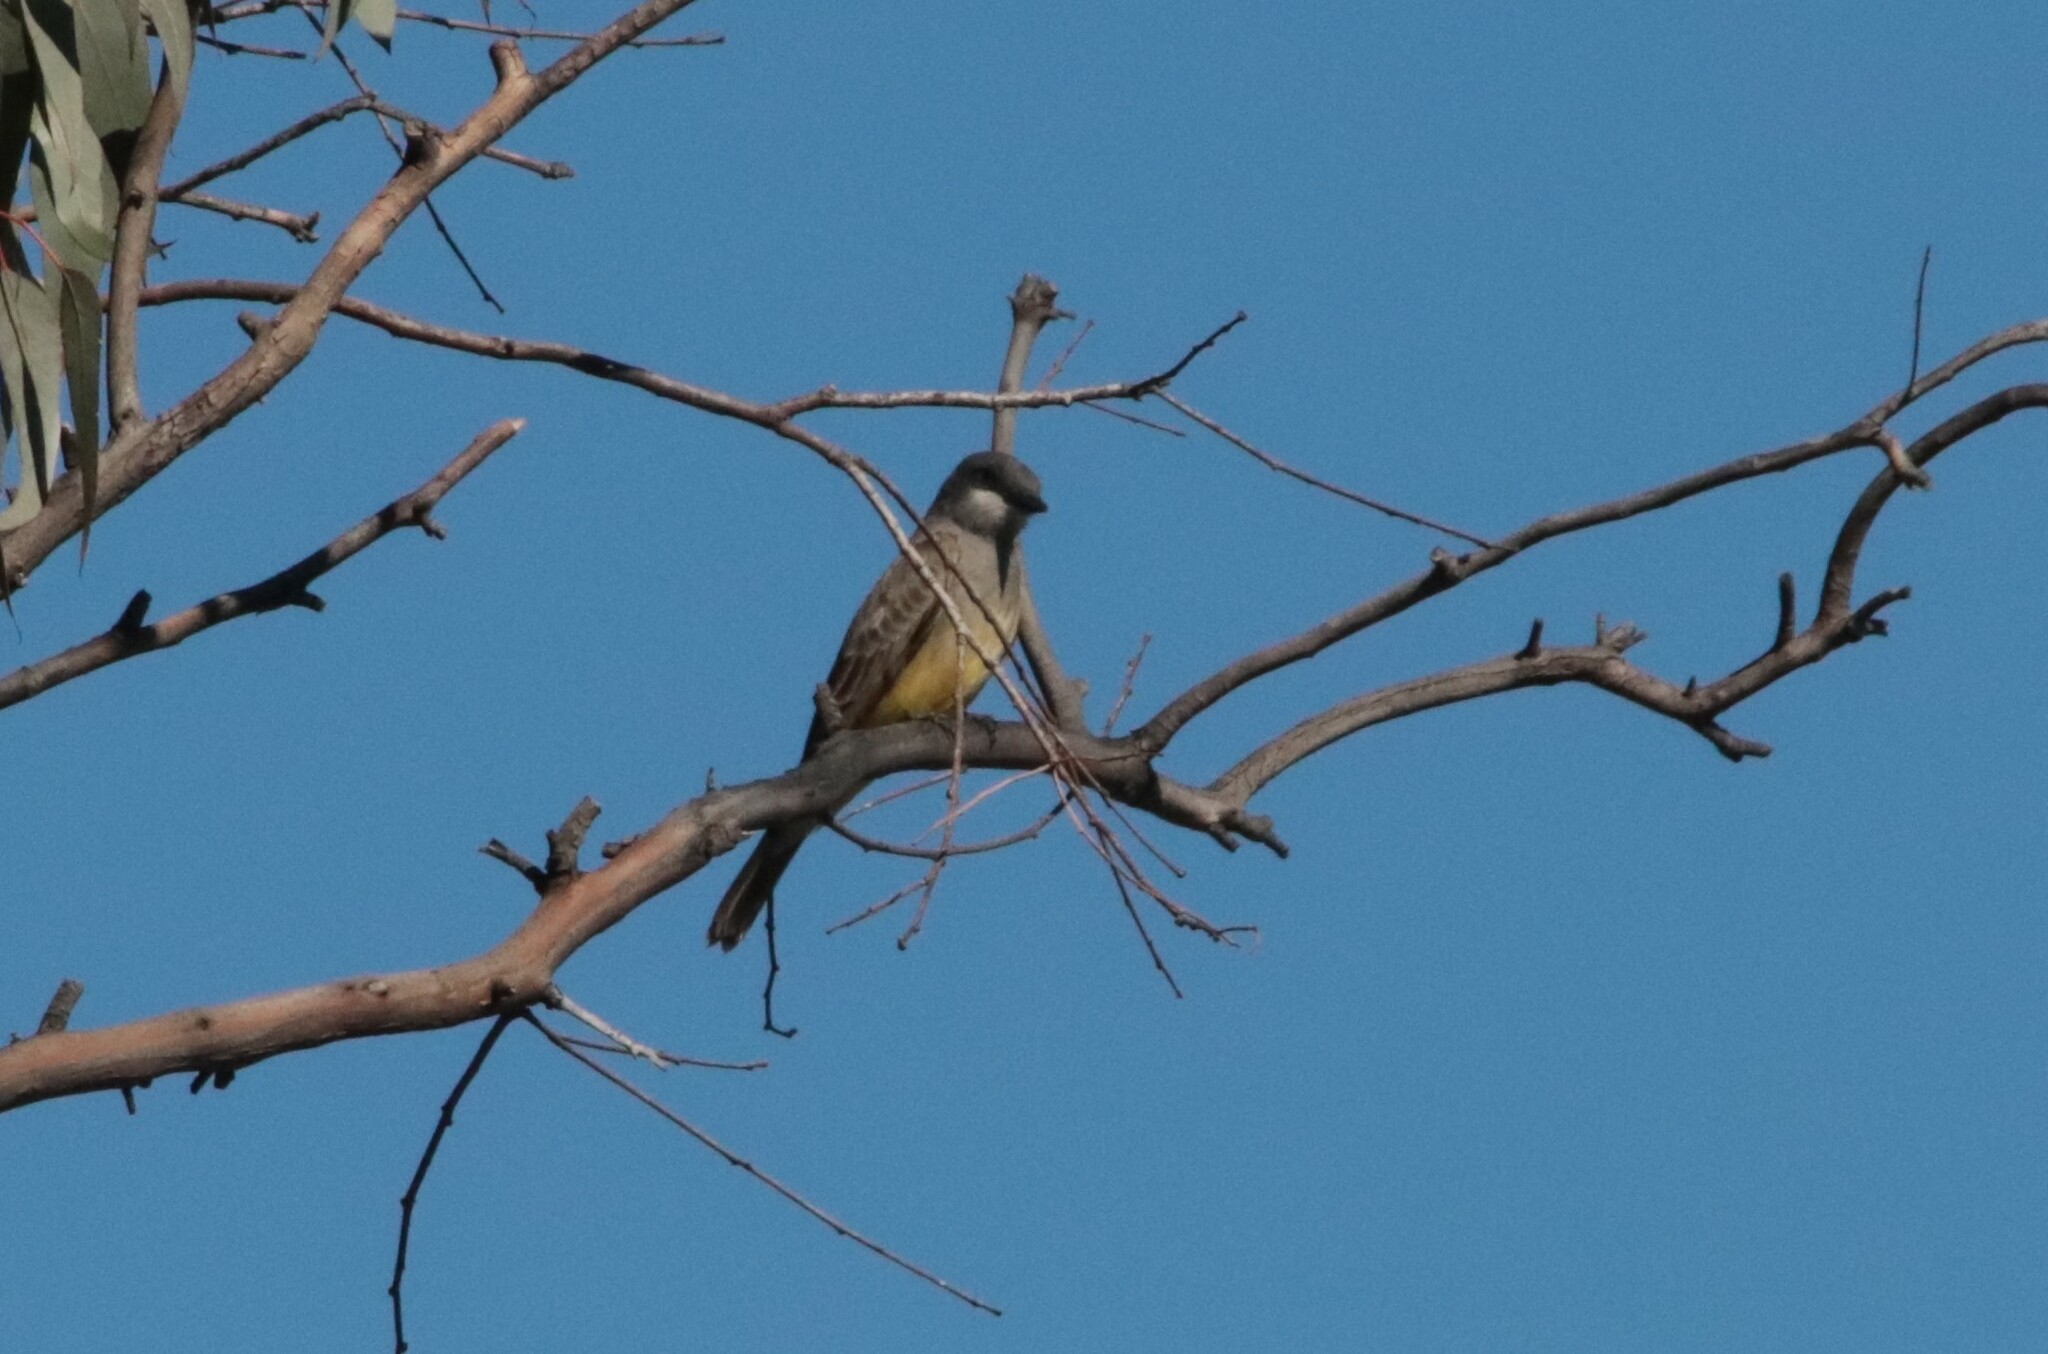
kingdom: Animalia
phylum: Chordata
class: Aves
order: Passeriformes
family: Tyrannidae
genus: Tyrannus
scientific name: Tyrannus vociferans
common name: Cassin's kingbird
